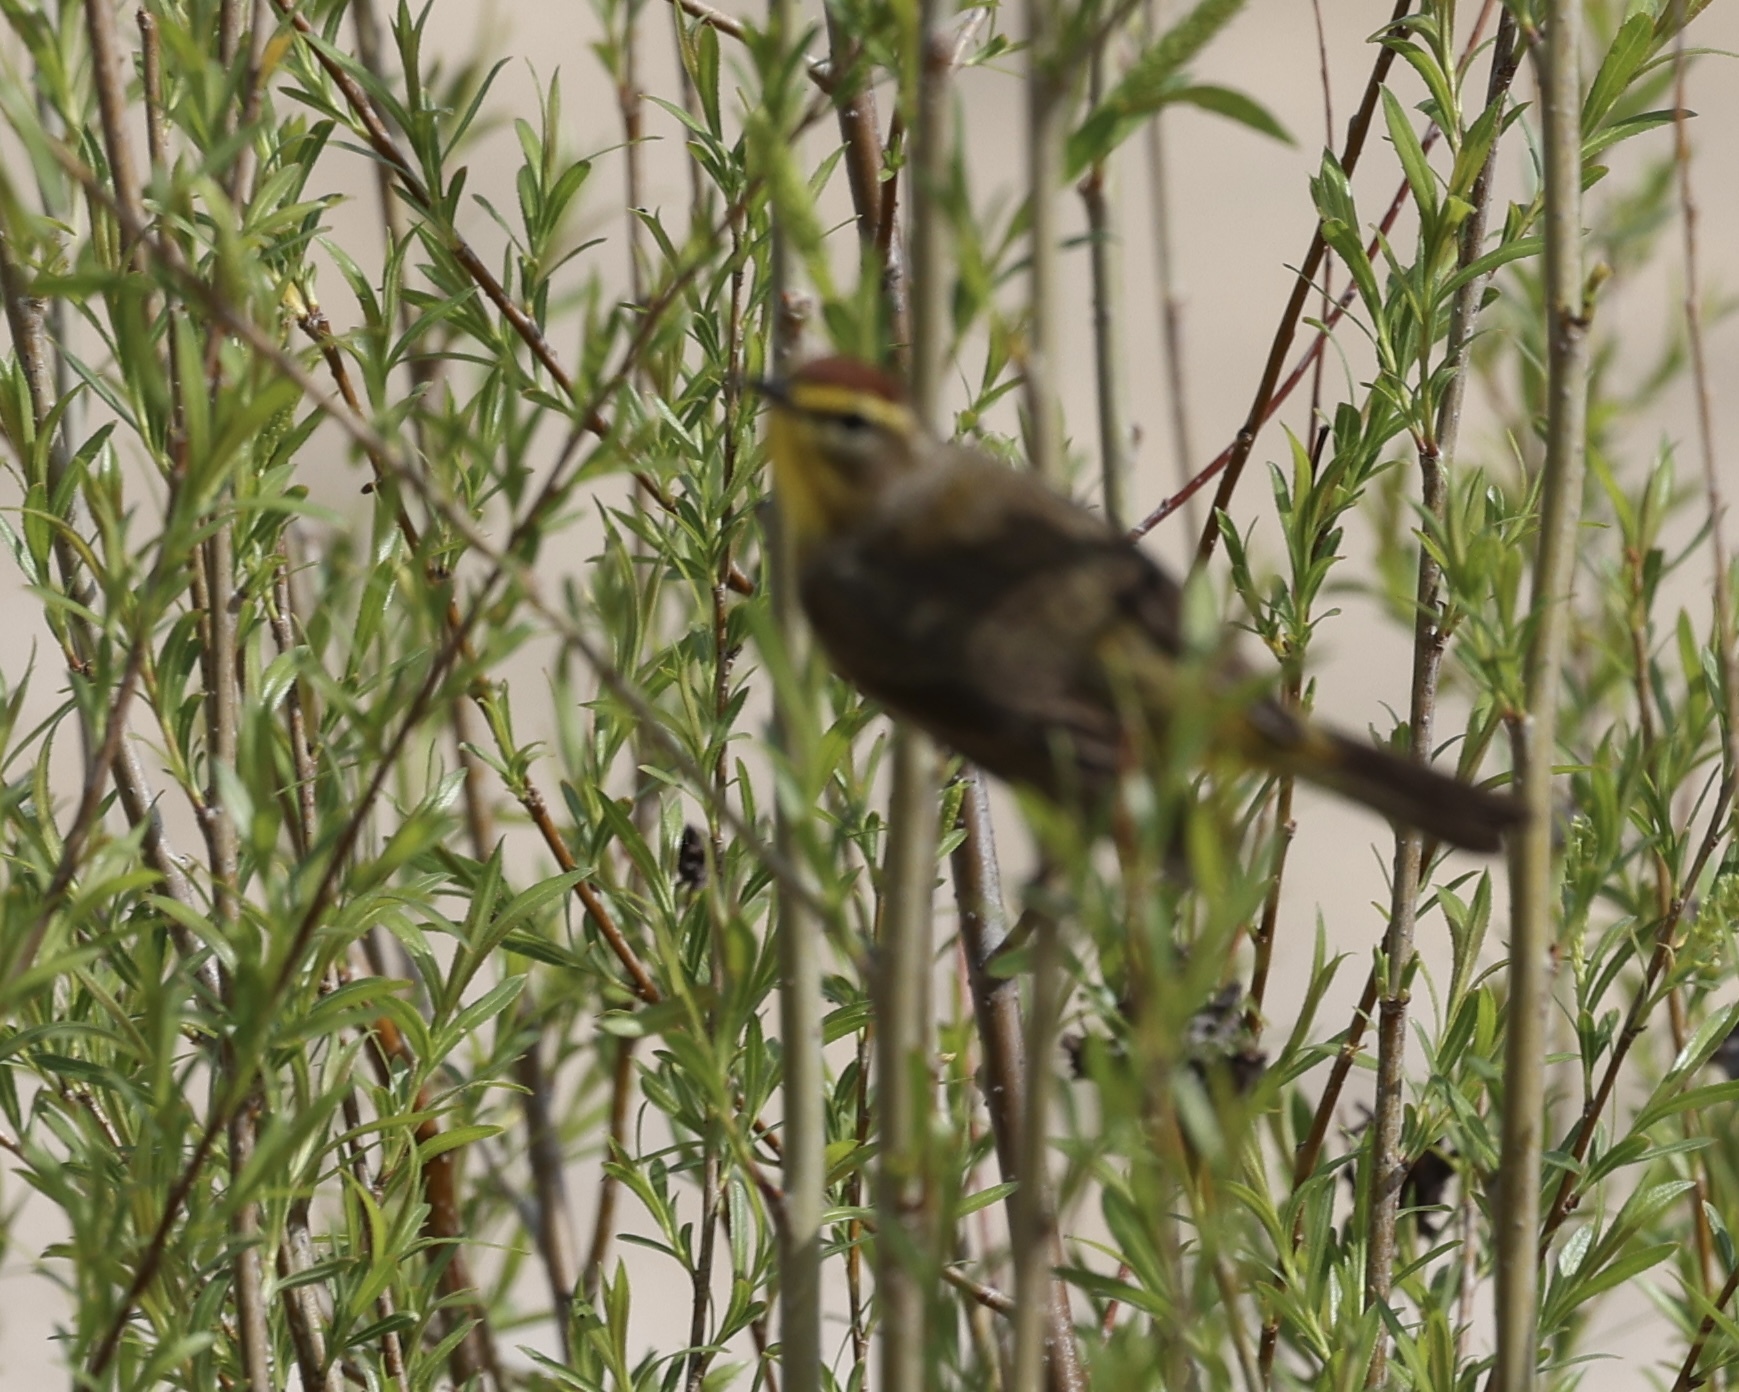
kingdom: Animalia
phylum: Chordata
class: Aves
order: Passeriformes
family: Parulidae
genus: Setophaga
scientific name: Setophaga palmarum
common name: Palm warbler
